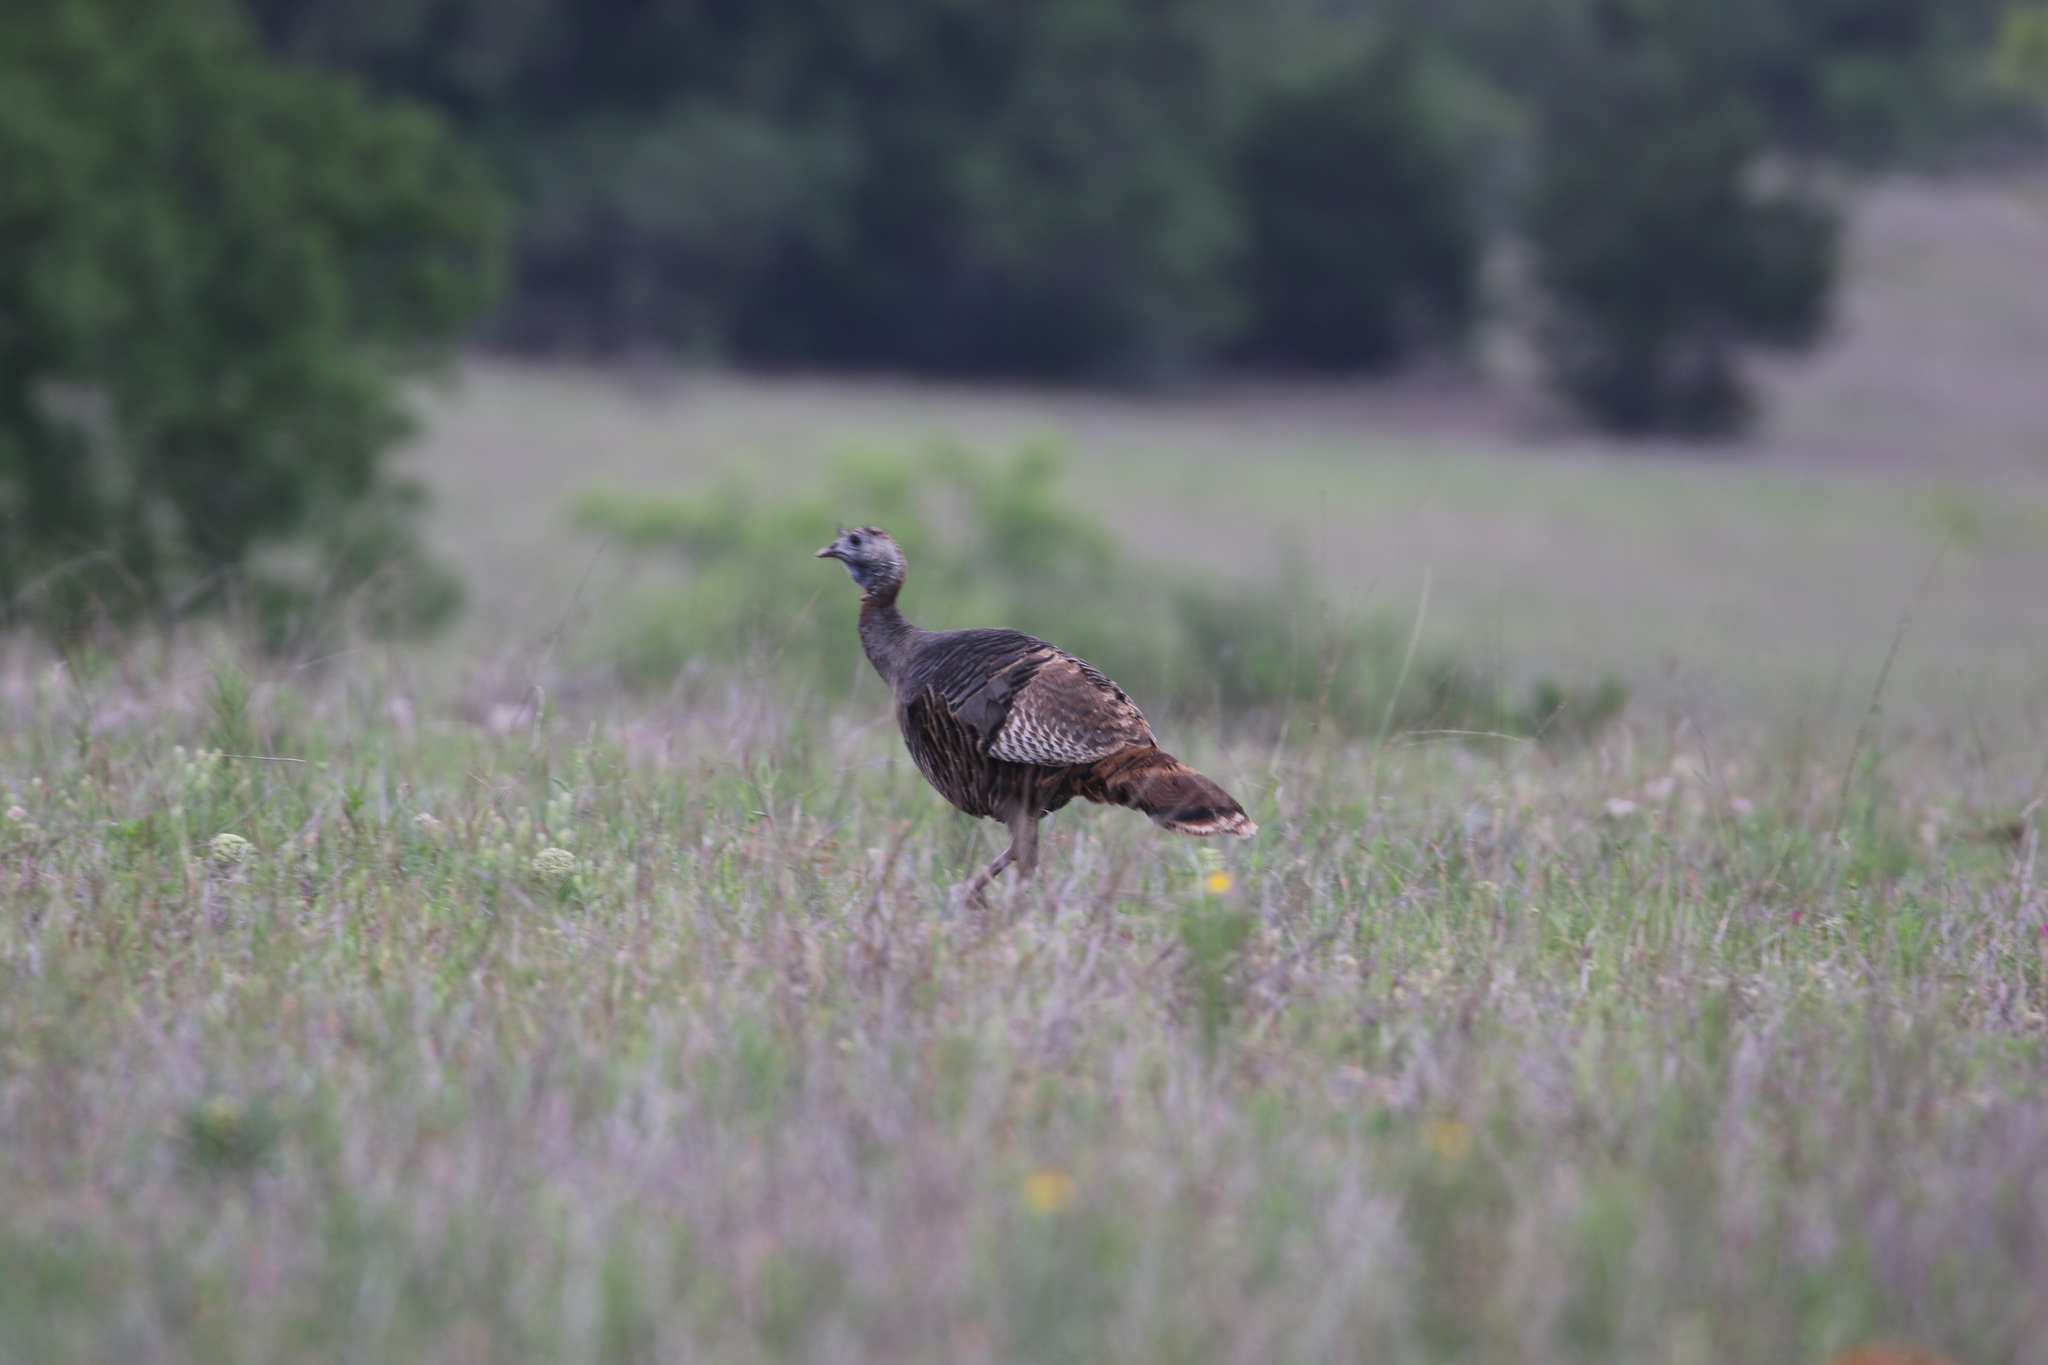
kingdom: Animalia
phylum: Chordata
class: Aves
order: Galliformes
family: Phasianidae
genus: Meleagris
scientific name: Meleagris gallopavo
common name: Wild turkey
